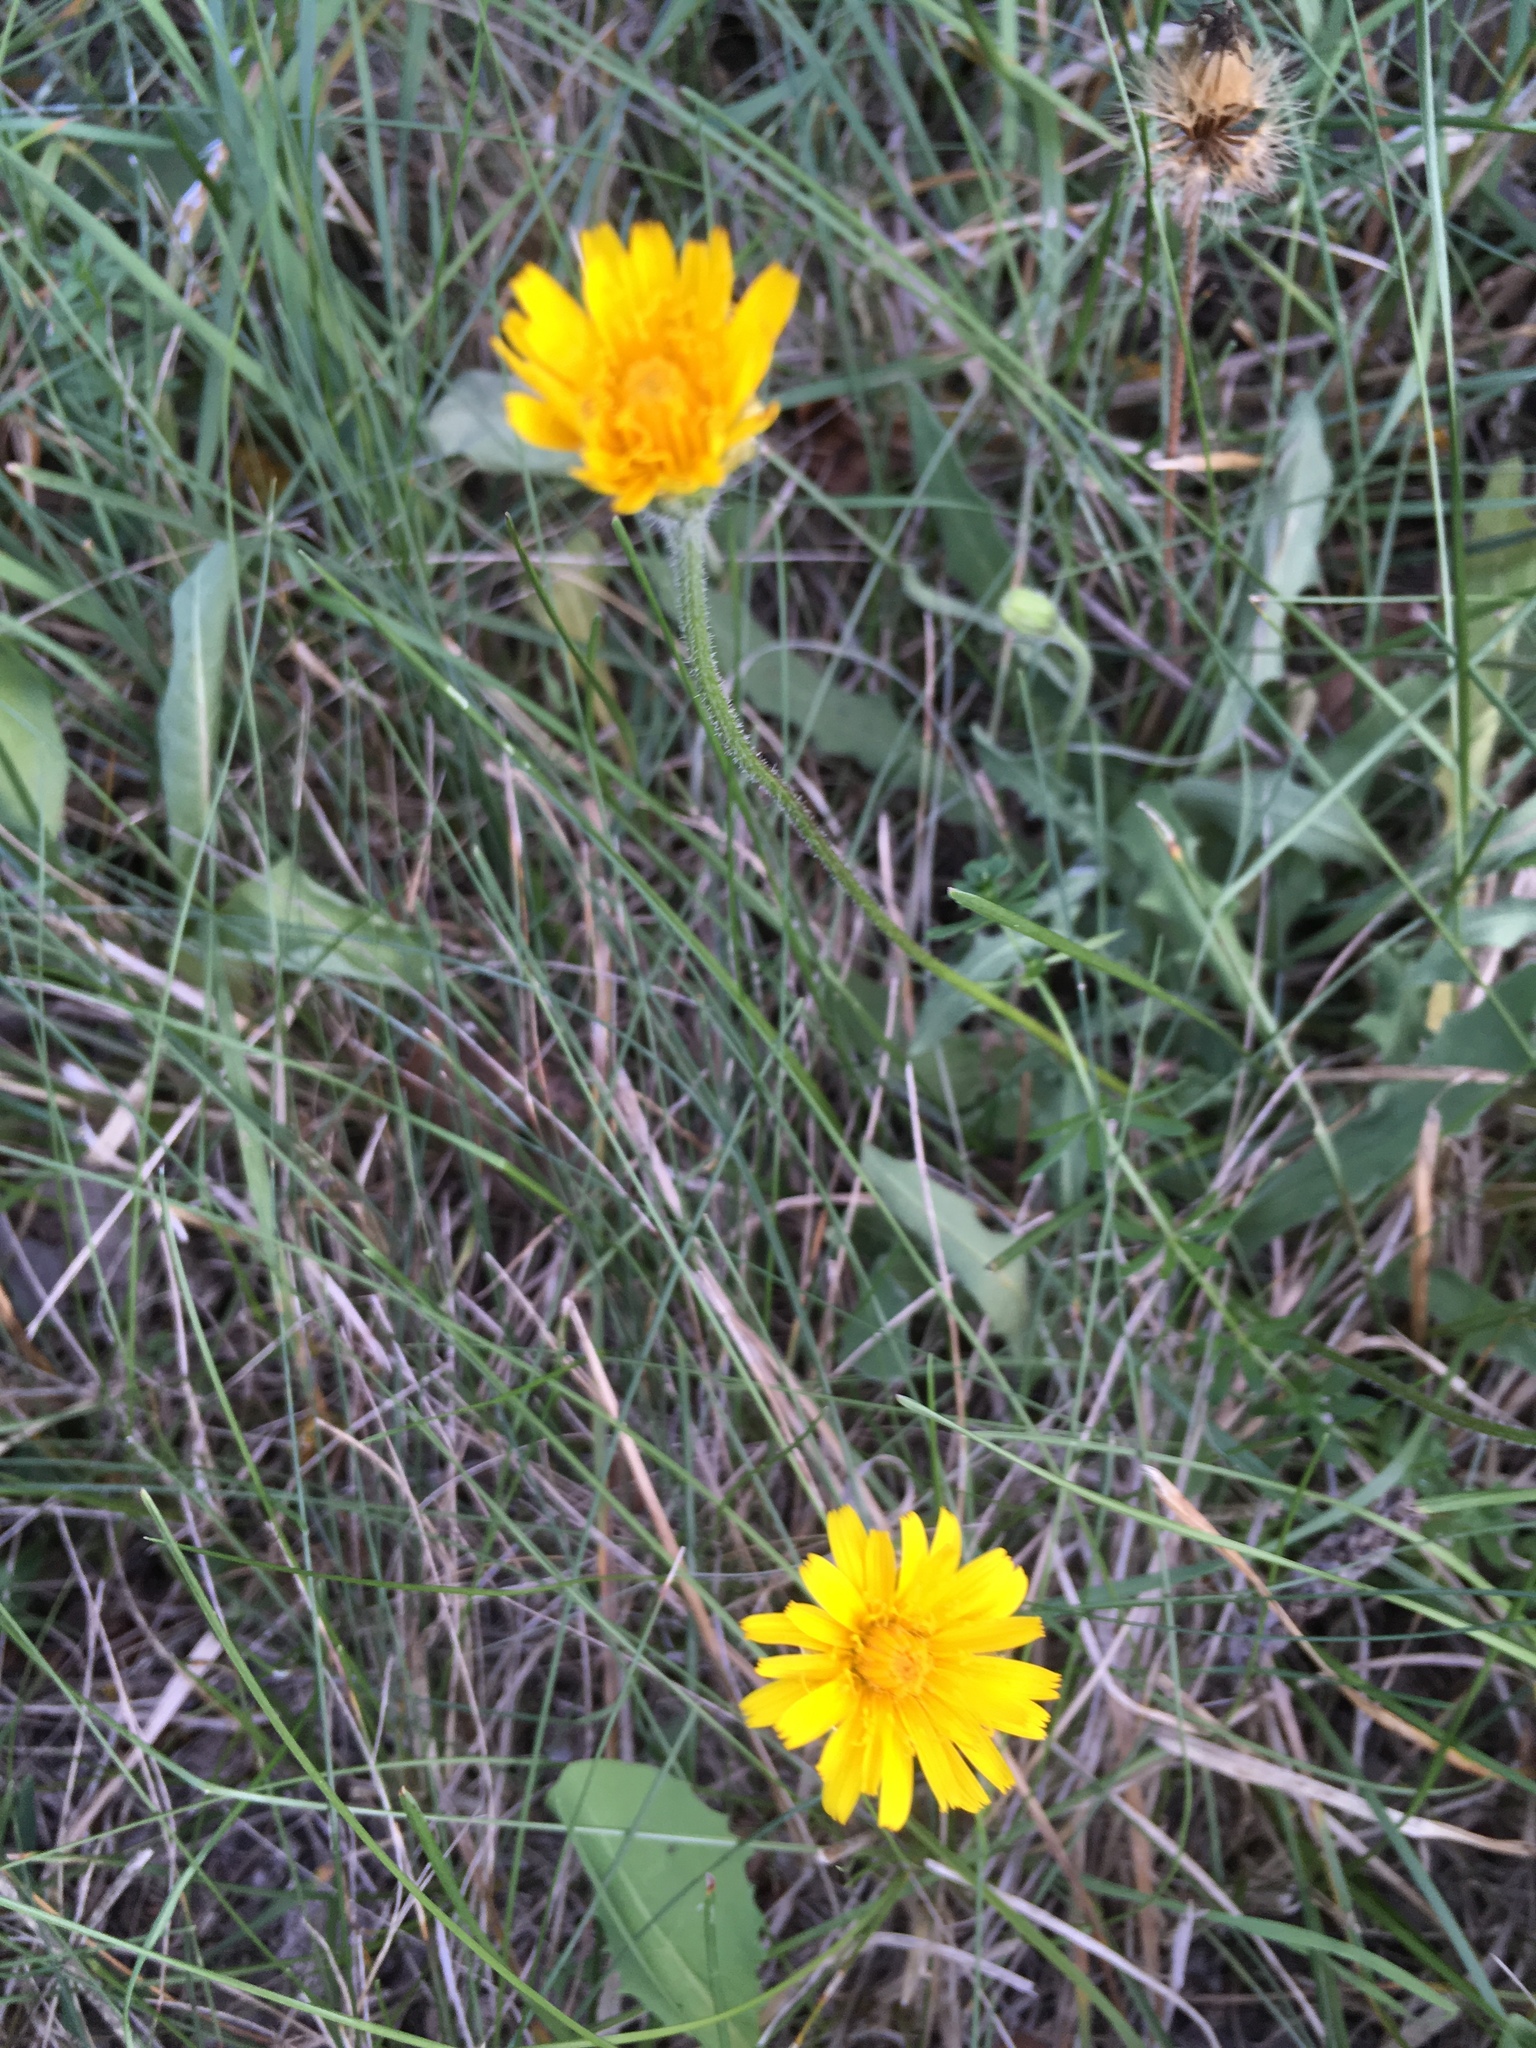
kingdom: Plantae
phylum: Tracheophyta
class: Magnoliopsida
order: Asterales
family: Asteraceae
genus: Leontodon
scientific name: Leontodon hispidus
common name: Rough hawkbit
